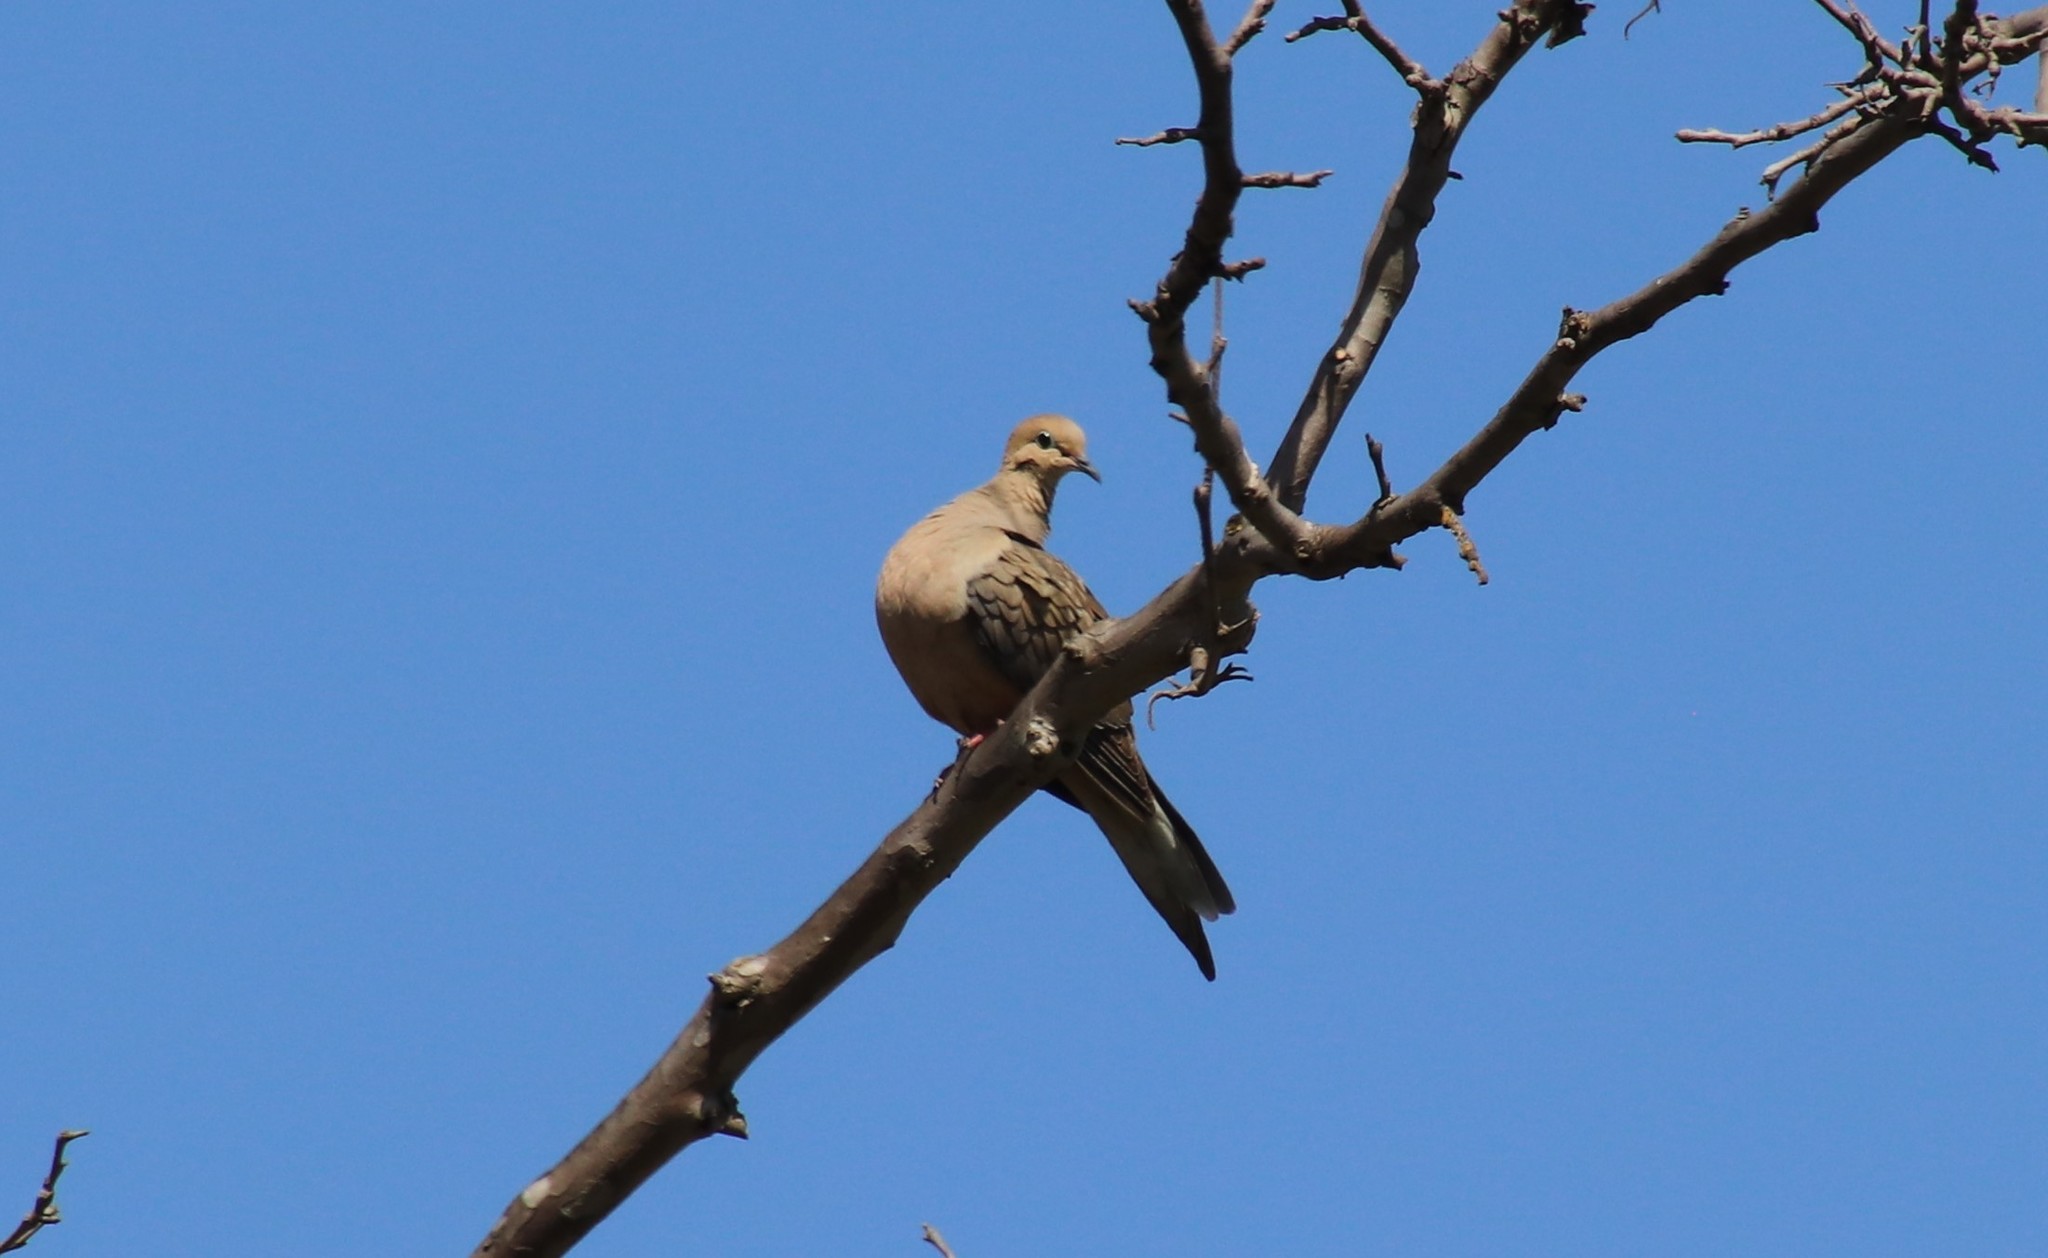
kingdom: Animalia
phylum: Chordata
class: Aves
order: Columbiformes
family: Columbidae
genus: Zenaida
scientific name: Zenaida macroura
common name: Mourning dove
